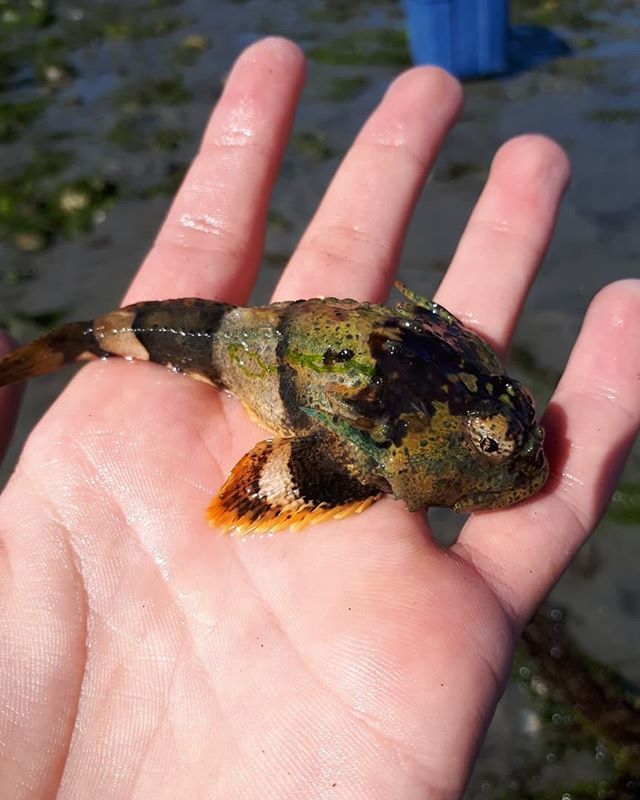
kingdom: Animalia
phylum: Chordata
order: Scorpaeniformes
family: Cottidae
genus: Enophrys
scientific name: Enophrys bison
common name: Buffalo sculpin
